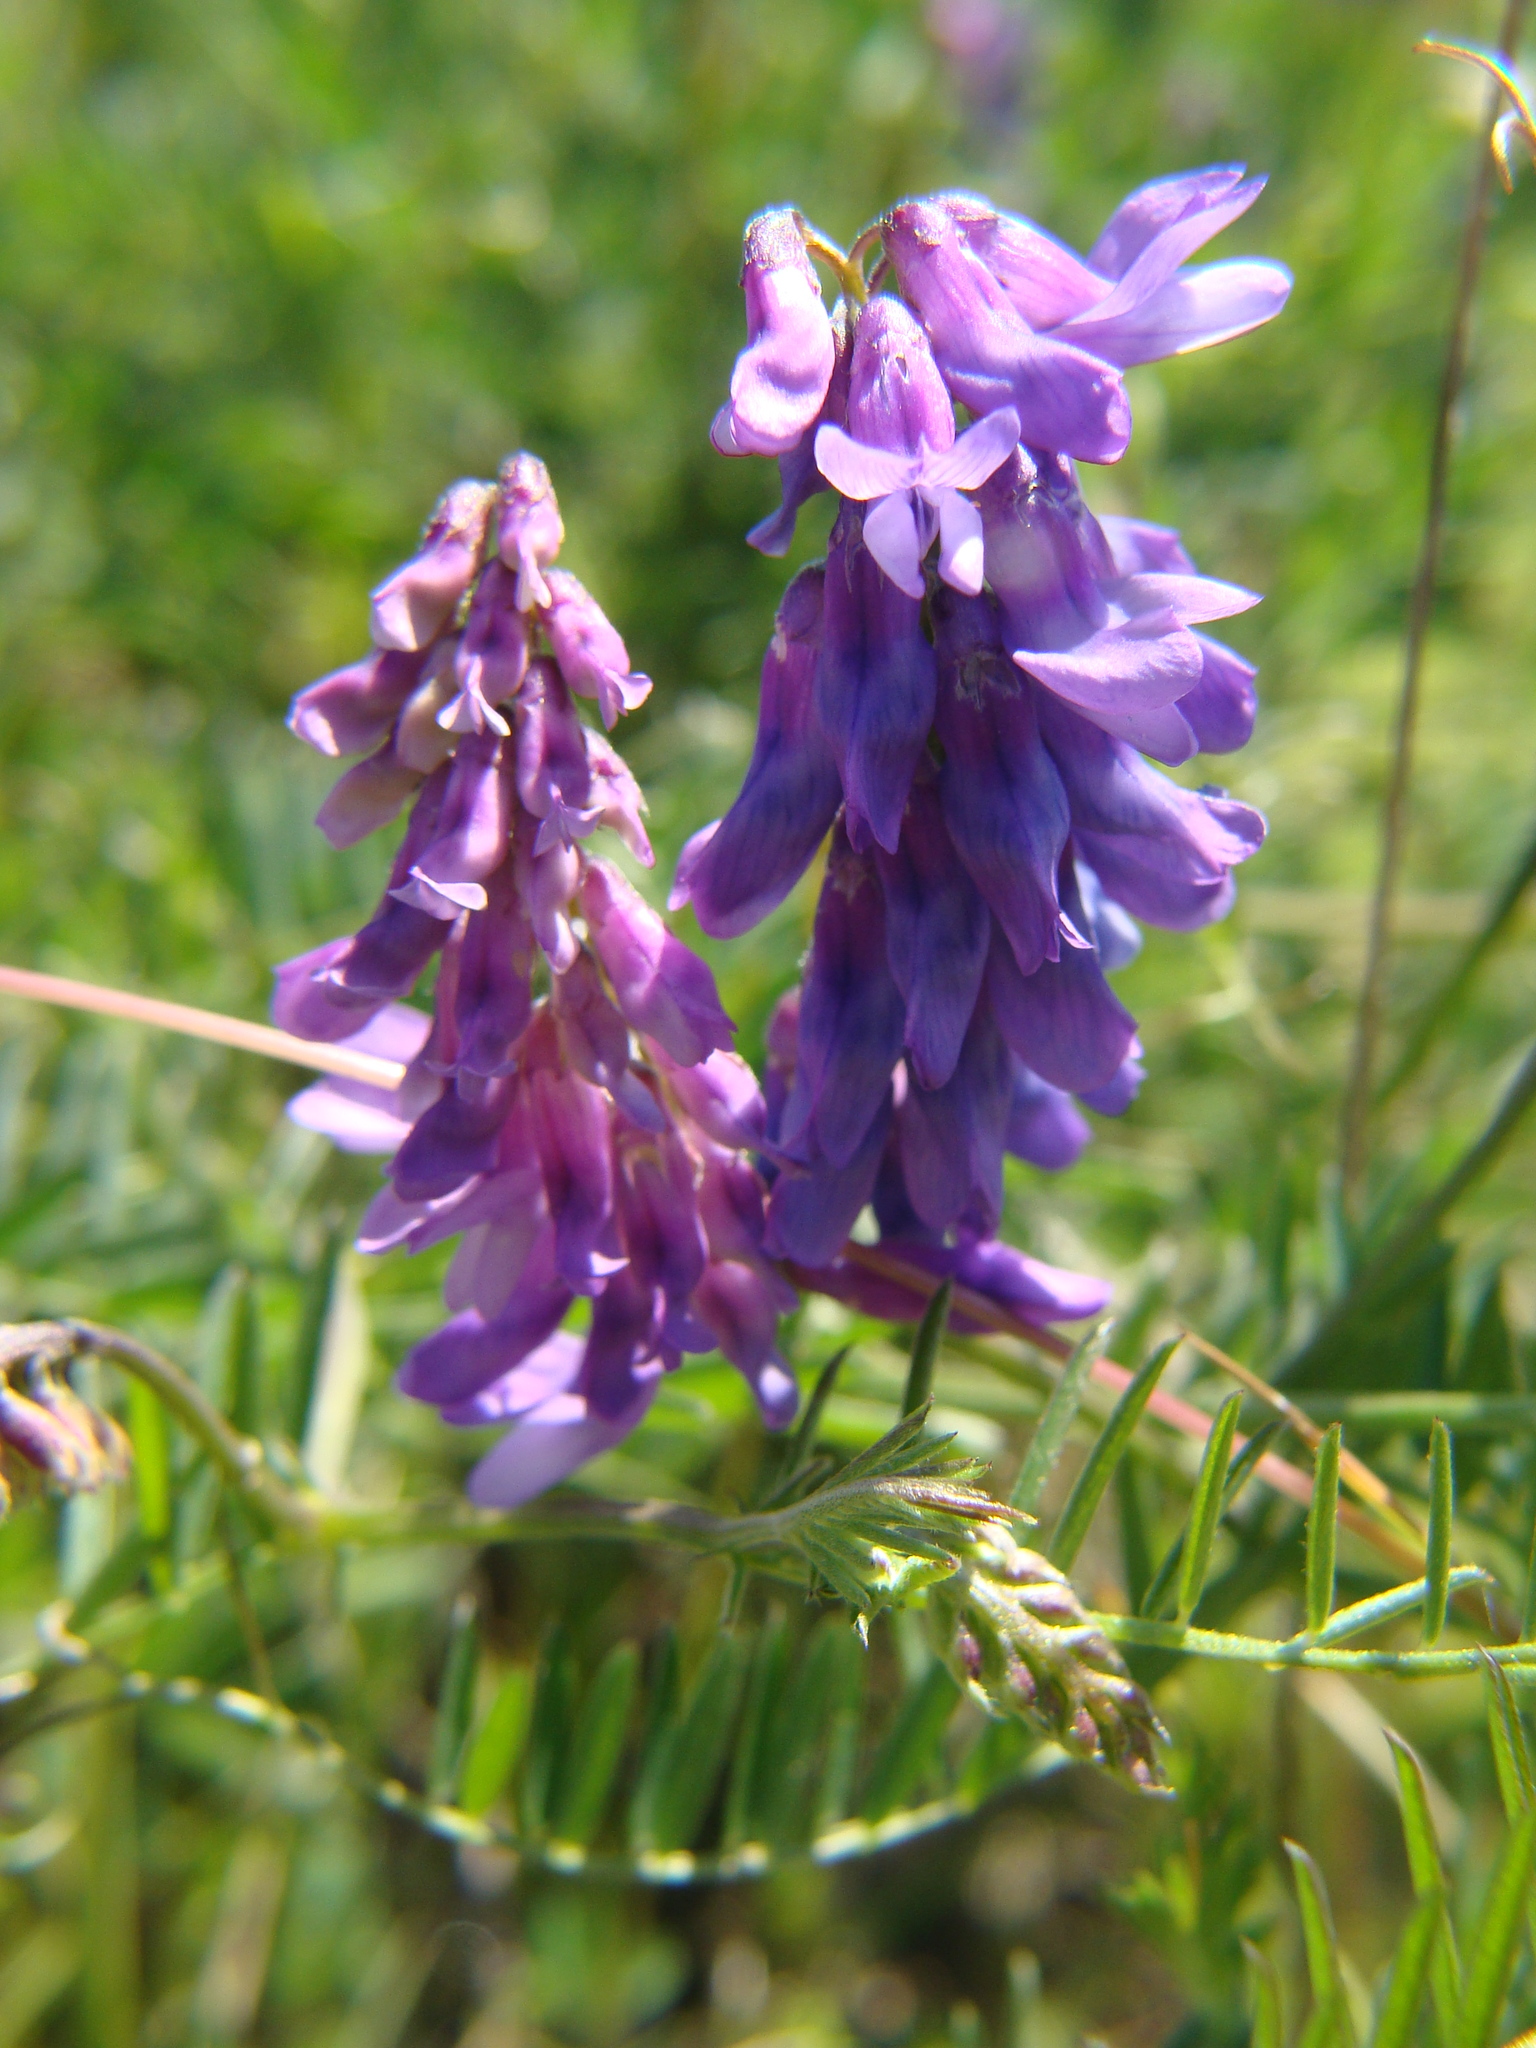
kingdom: Plantae
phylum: Tracheophyta
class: Magnoliopsida
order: Fabales
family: Fabaceae
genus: Vicia
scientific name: Vicia cracca
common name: Bird vetch
